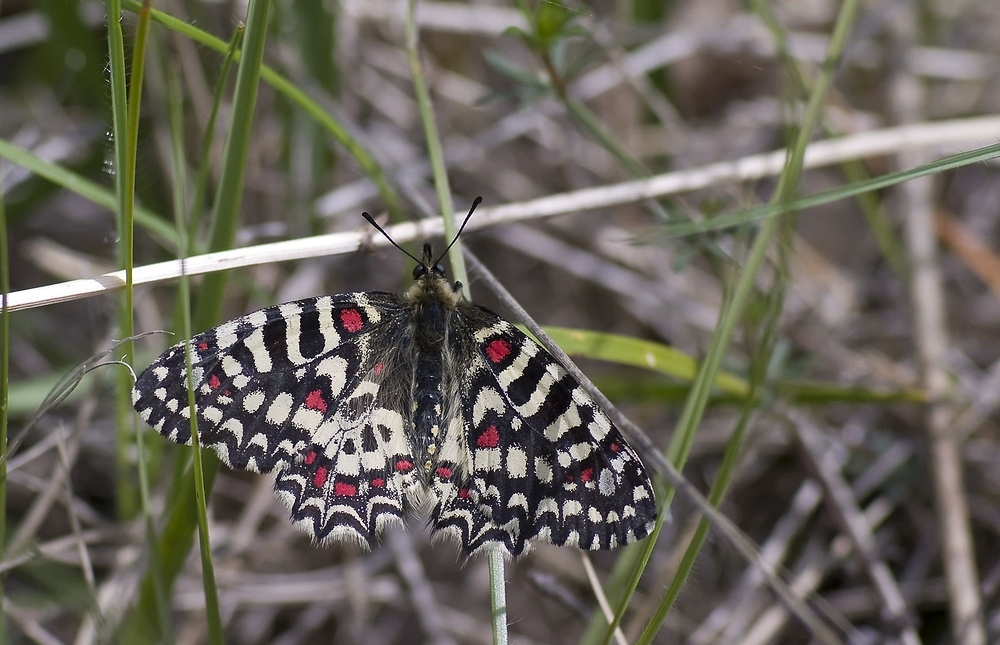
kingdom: Animalia
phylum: Arthropoda
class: Insecta
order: Lepidoptera
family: Papilionidae
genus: Zerynthia
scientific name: Zerynthia rumina
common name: Spanish festoon
